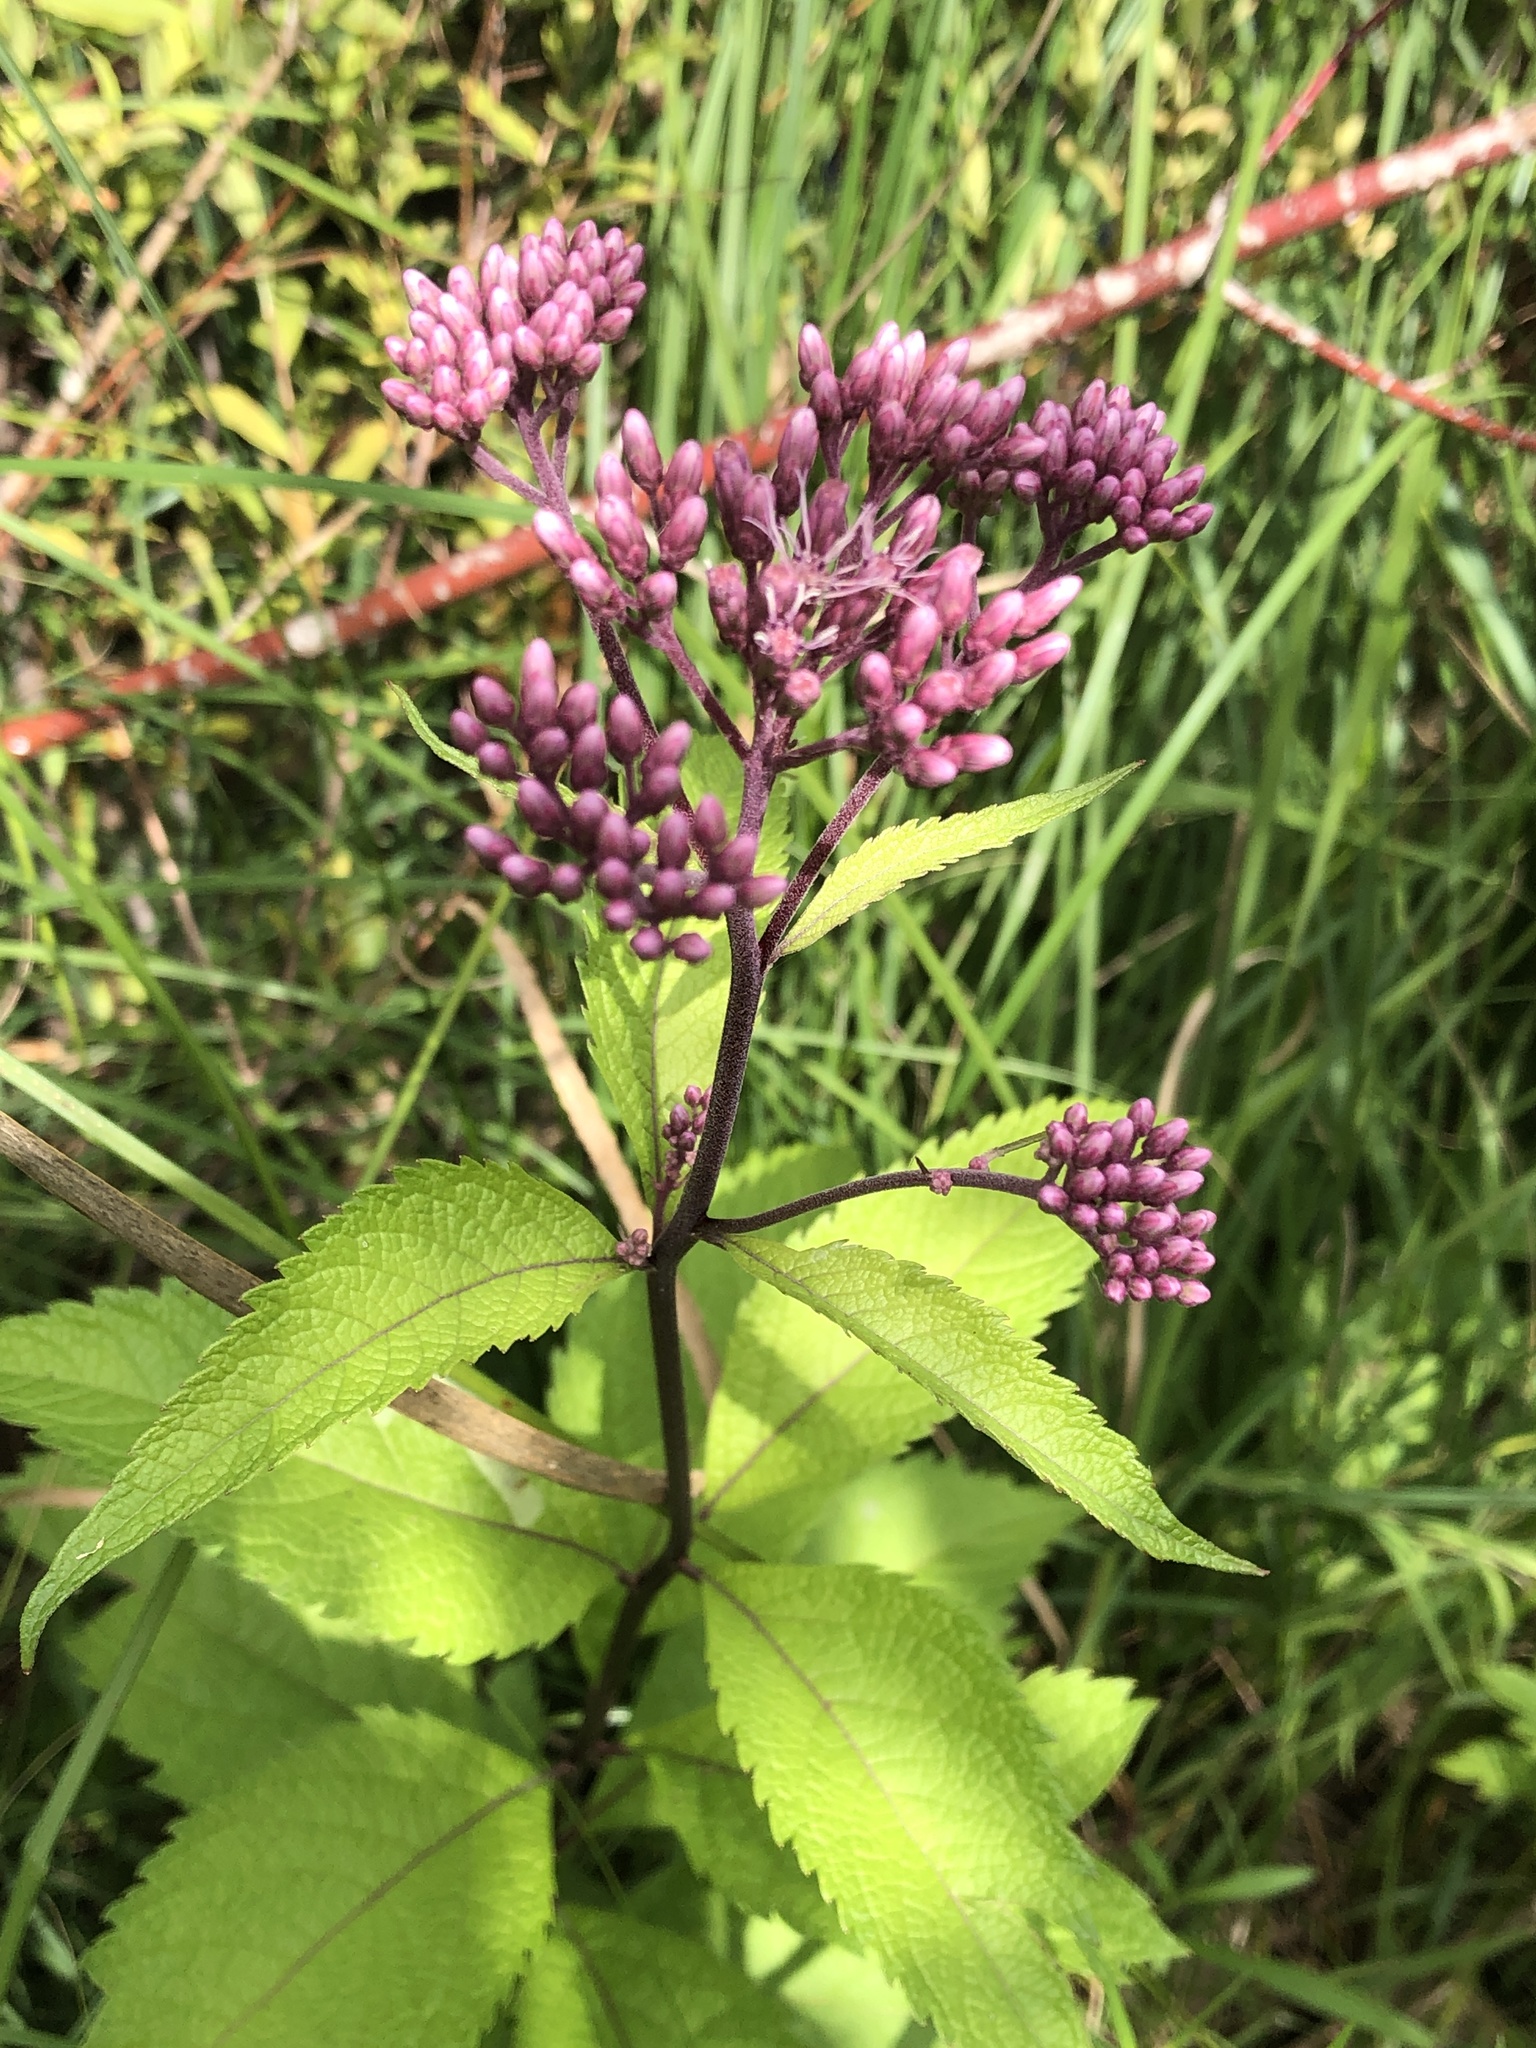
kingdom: Plantae
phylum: Tracheophyta
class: Magnoliopsida
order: Asterales
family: Asteraceae
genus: Eutrochium
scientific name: Eutrochium maculatum
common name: Spotted joe pye weed
